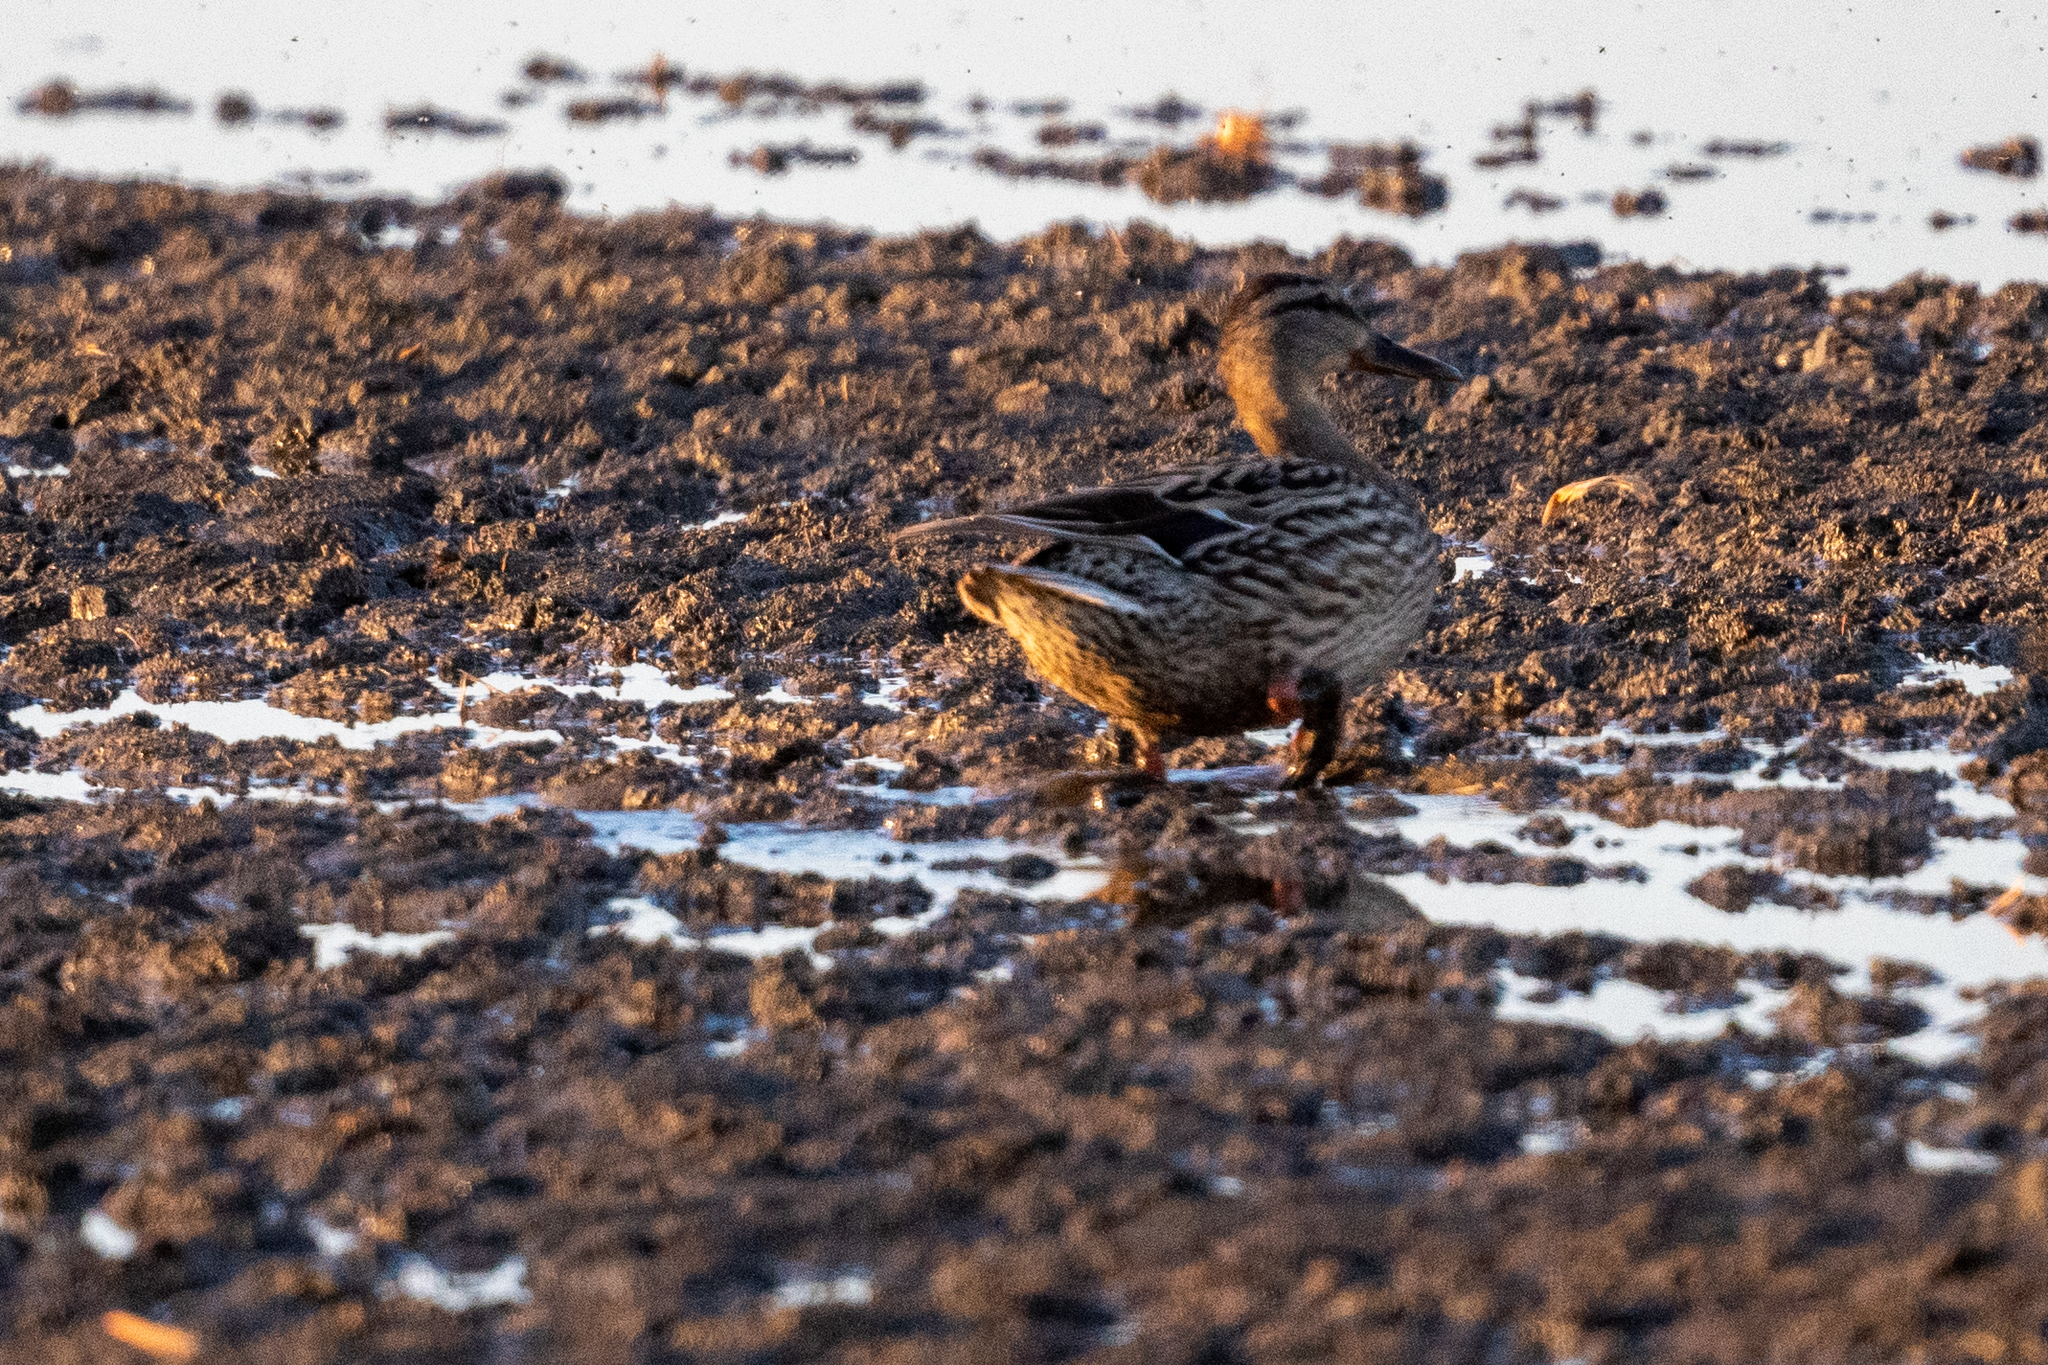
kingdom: Animalia
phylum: Chordata
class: Aves
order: Anseriformes
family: Anatidae
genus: Anas
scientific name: Anas platyrhynchos
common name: Mallard
